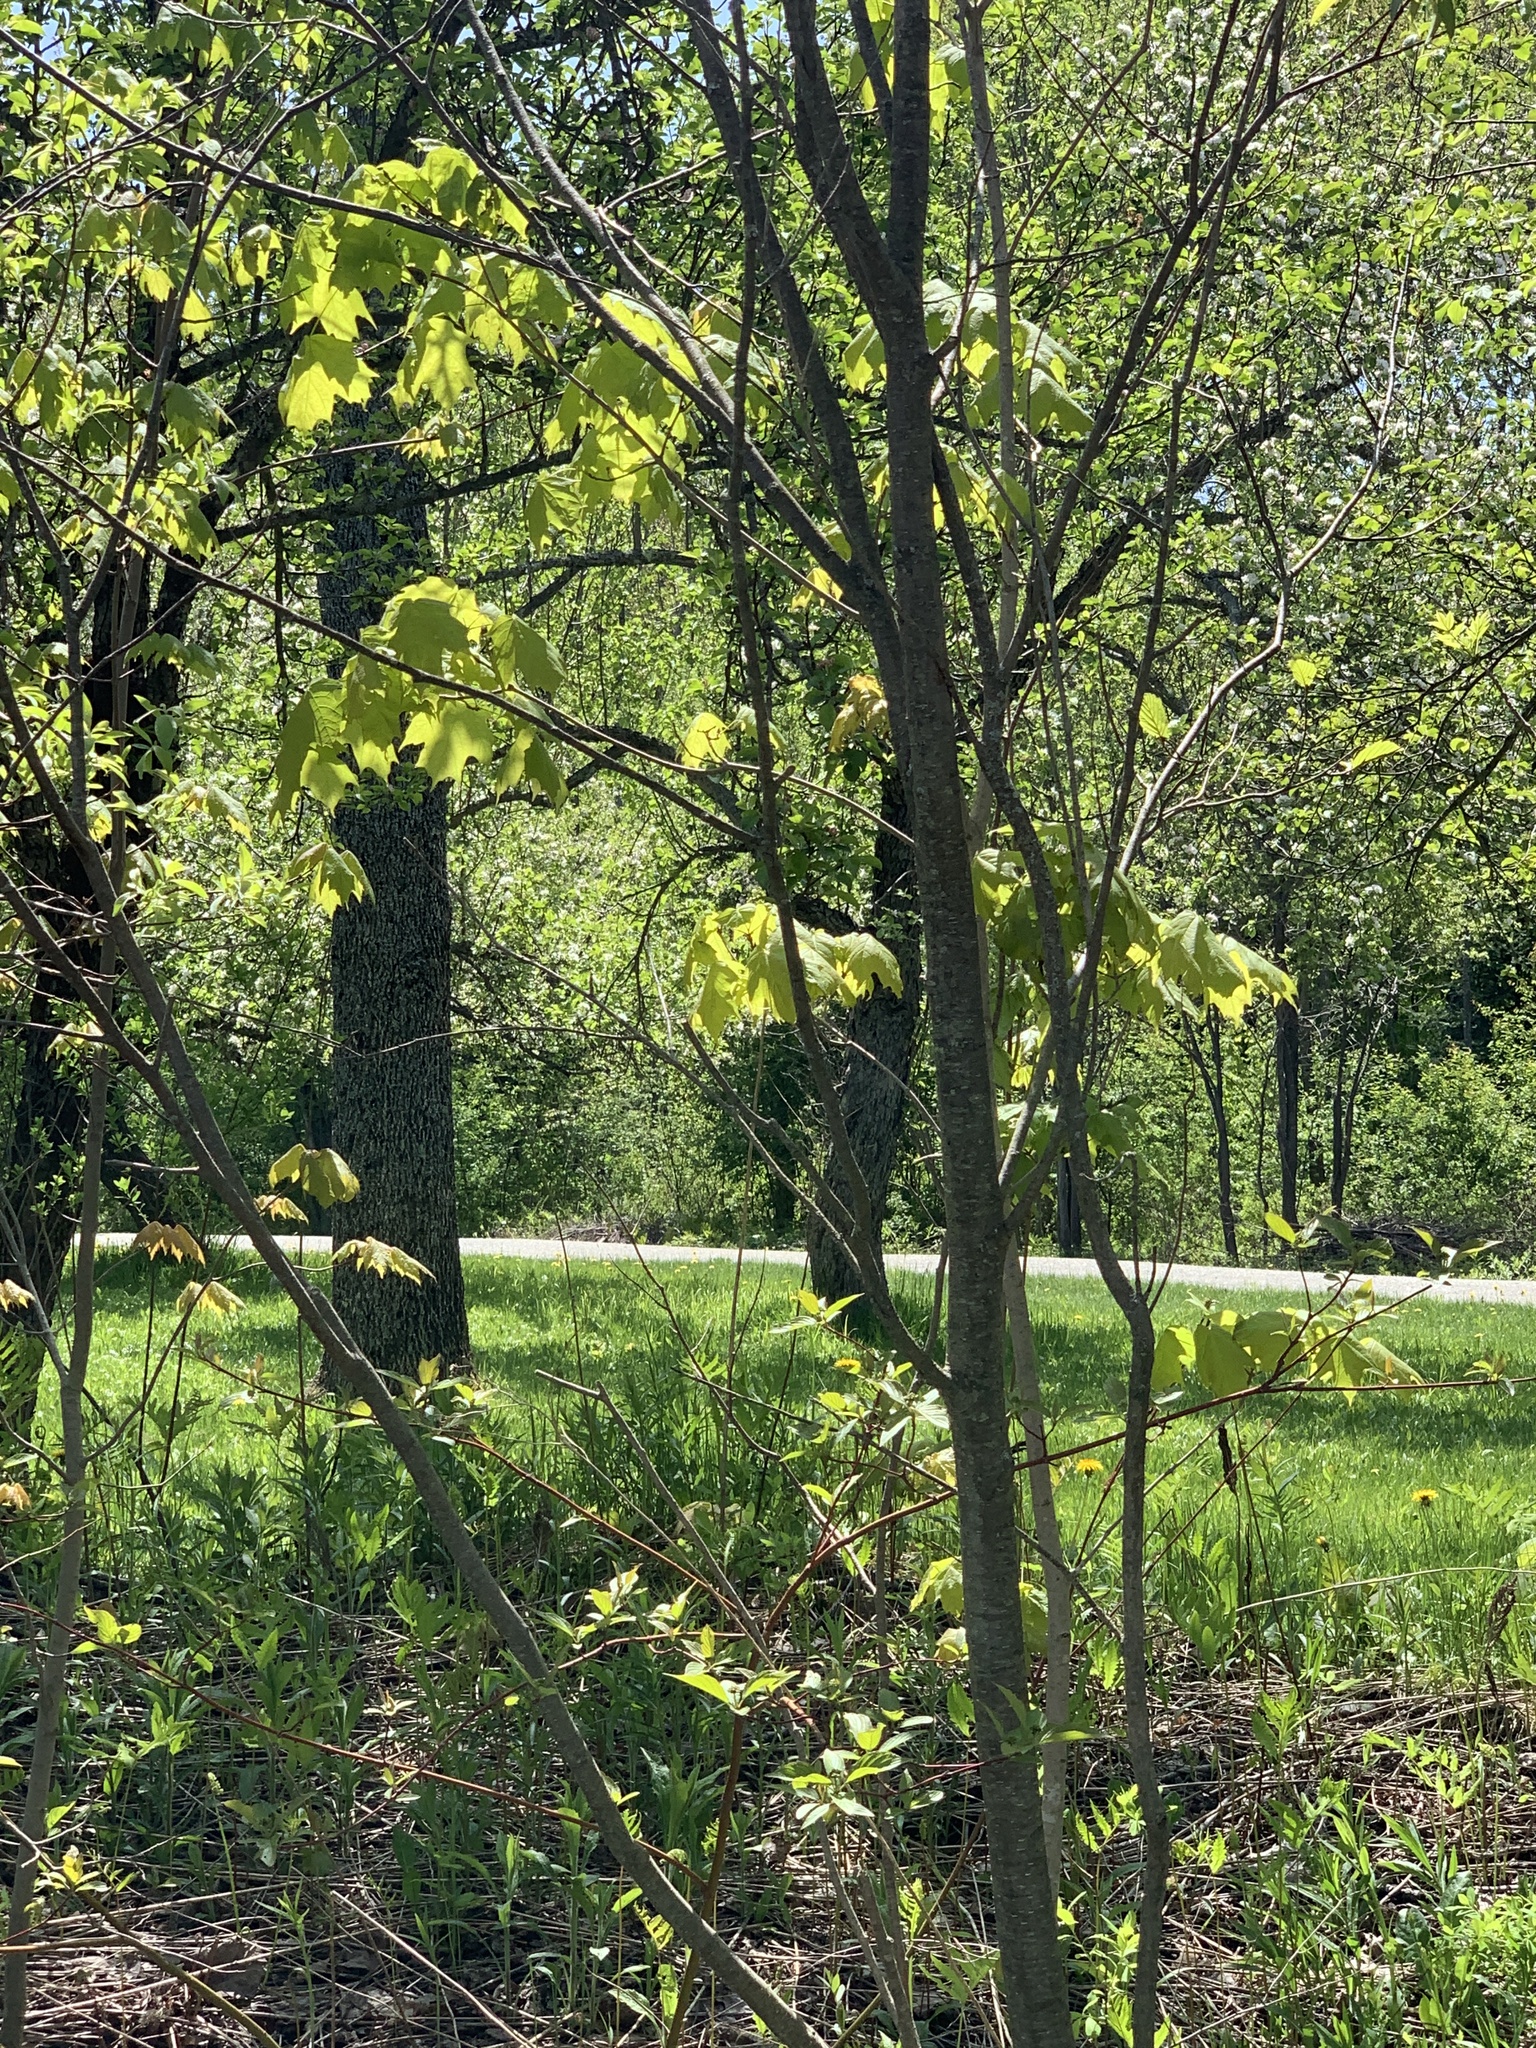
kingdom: Plantae
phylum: Tracheophyta
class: Magnoliopsida
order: Sapindales
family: Sapindaceae
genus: Acer
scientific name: Acer saccharum
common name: Sugar maple
